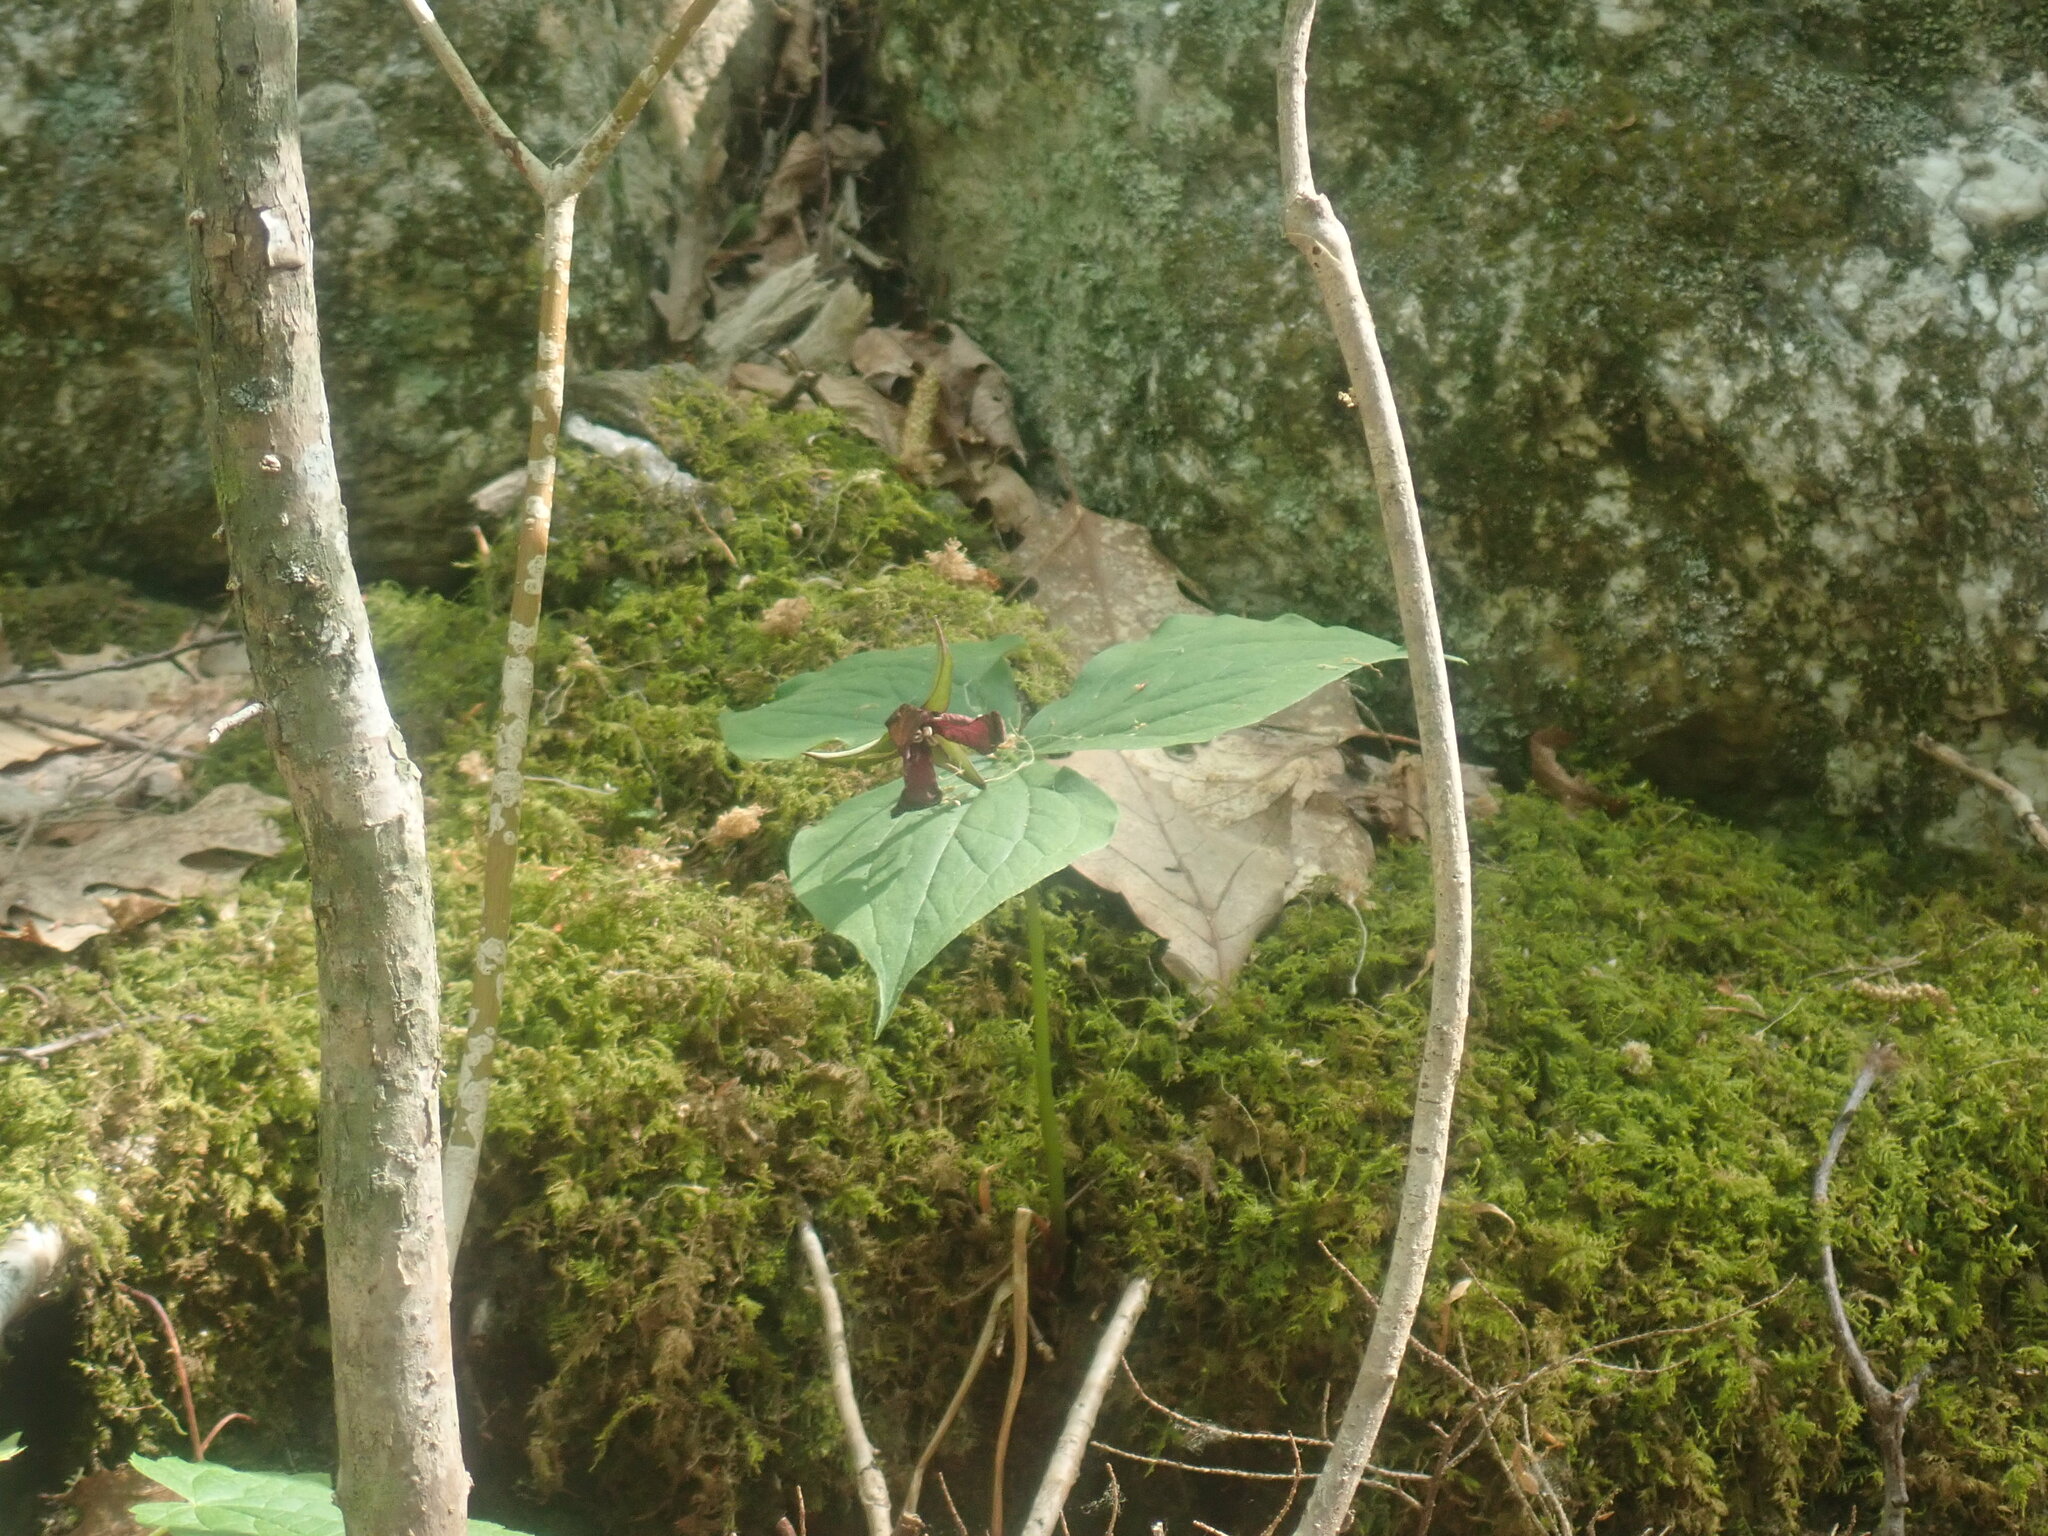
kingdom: Plantae
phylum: Tracheophyta
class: Liliopsida
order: Liliales
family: Melanthiaceae
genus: Trillium
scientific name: Trillium erectum
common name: Purple trillium
